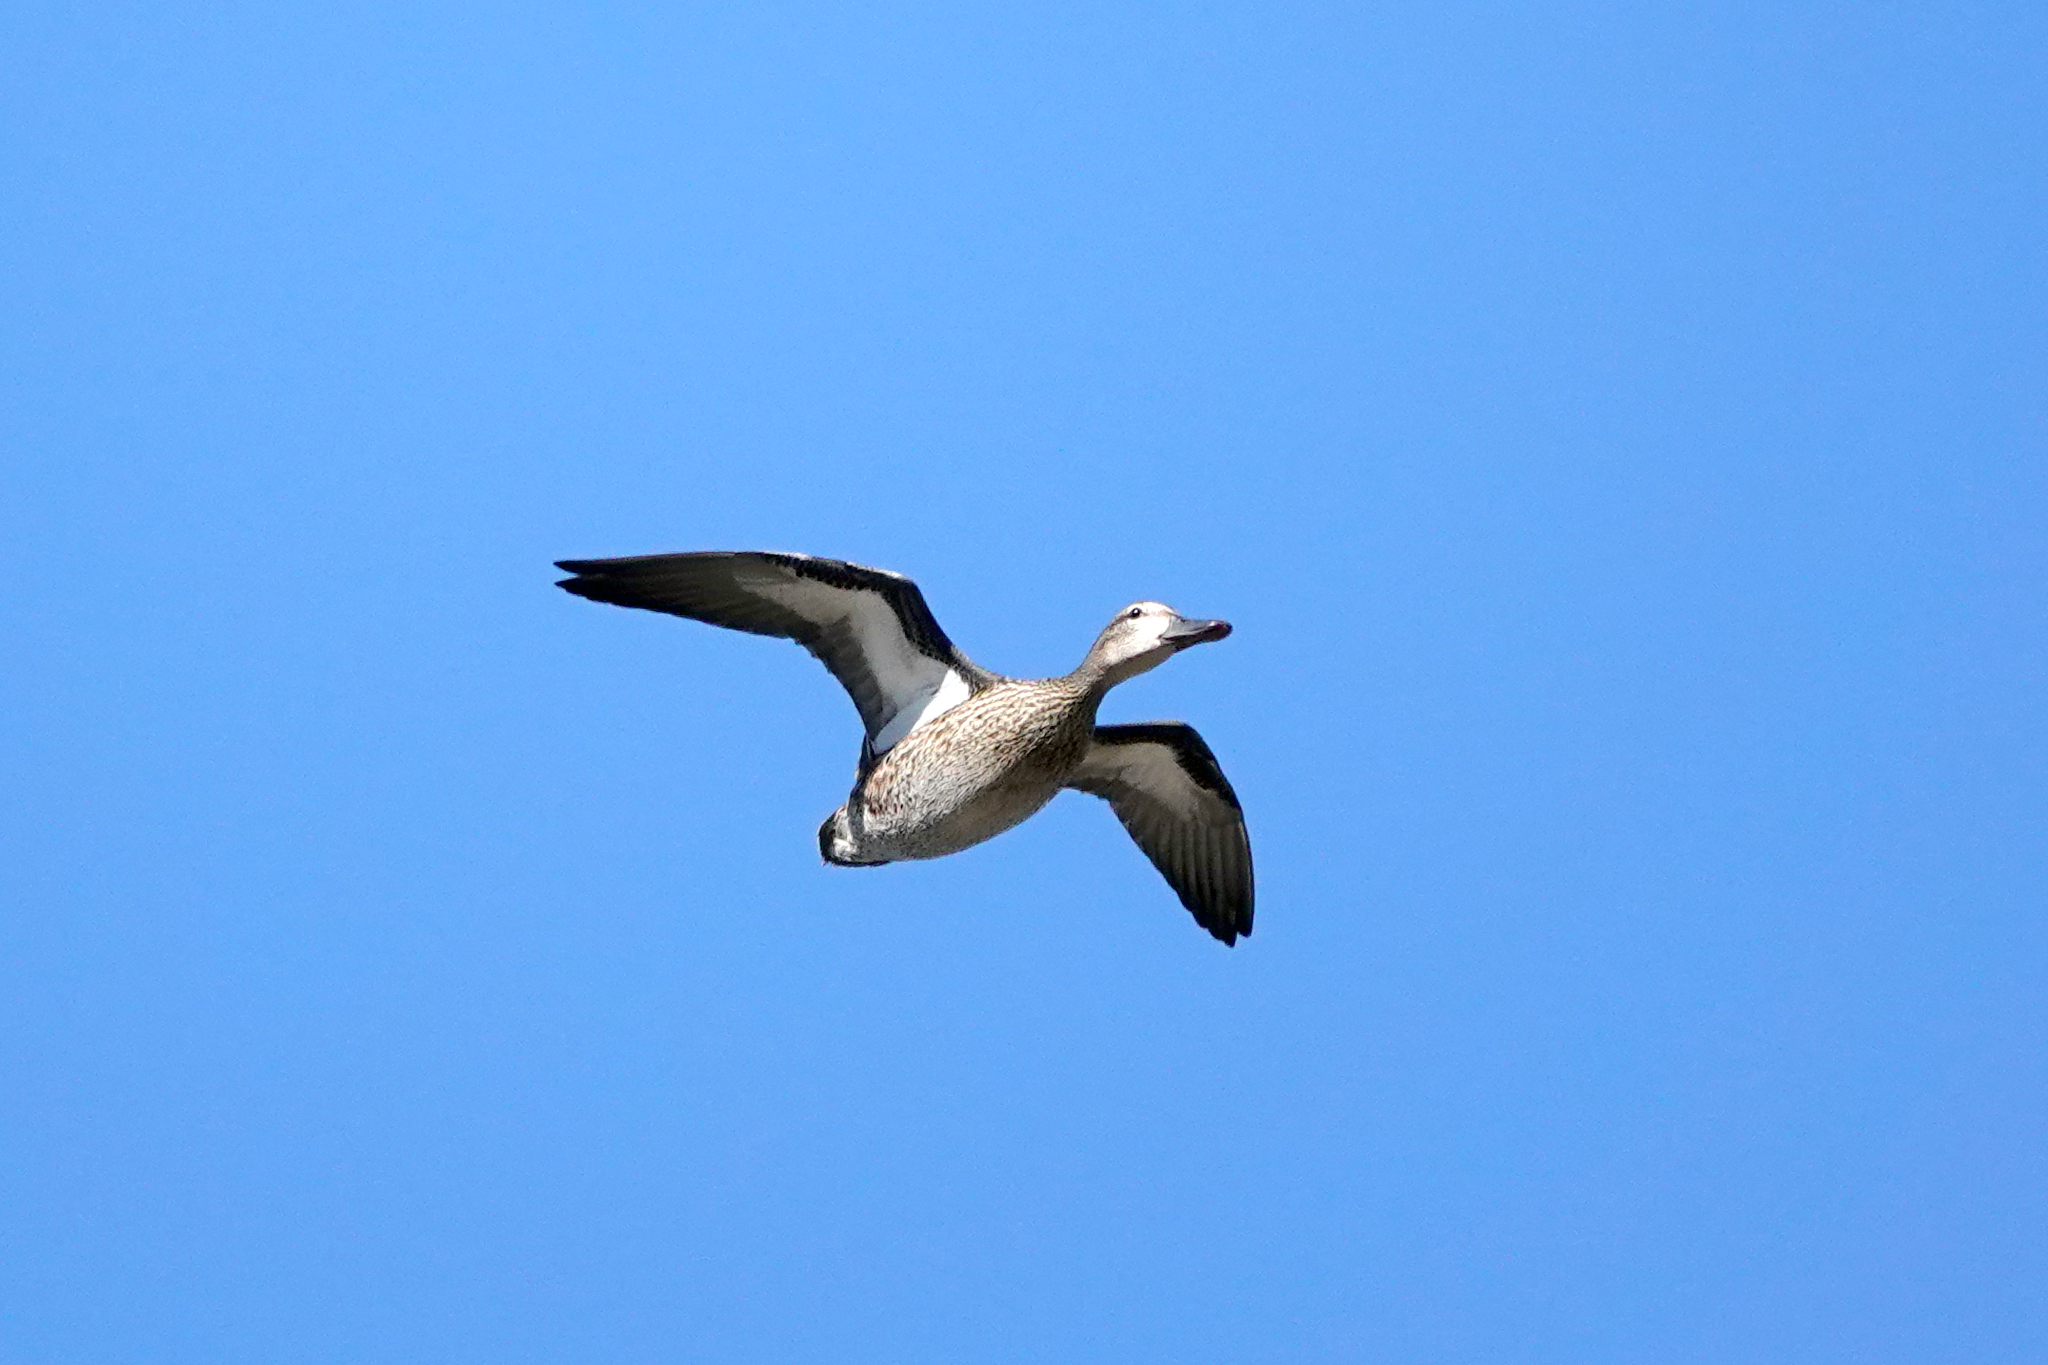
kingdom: Animalia
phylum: Chordata
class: Aves
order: Anseriformes
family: Anatidae
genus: Spatula
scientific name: Spatula discors
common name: Blue-winged teal
